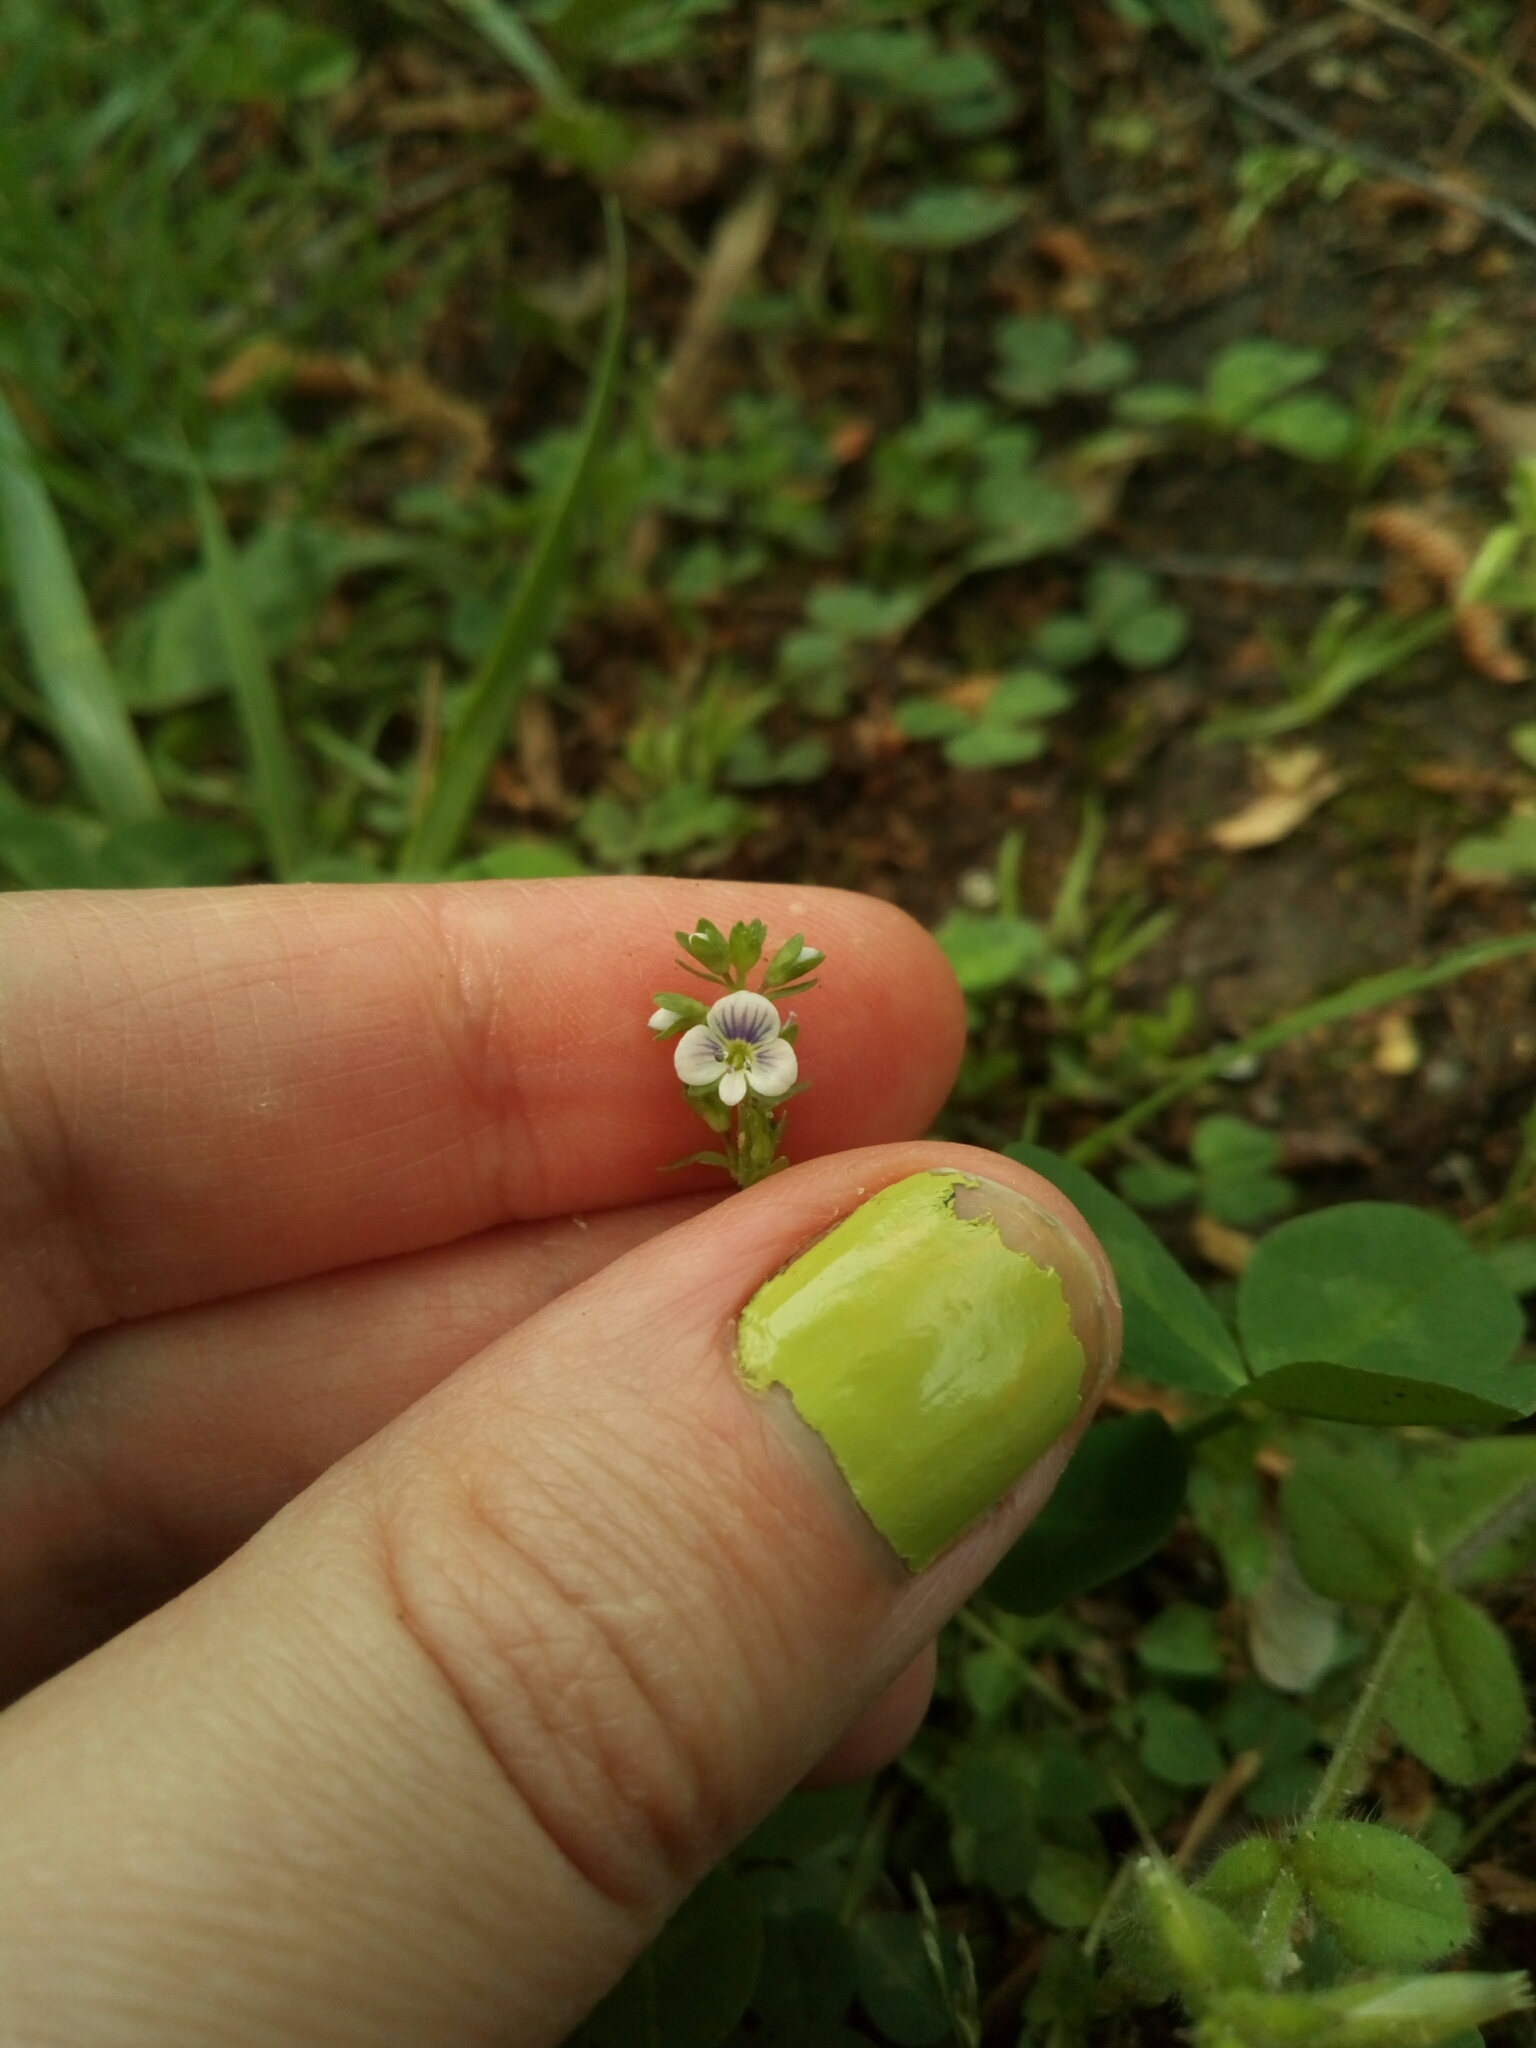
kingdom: Plantae
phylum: Tracheophyta
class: Magnoliopsida
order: Lamiales
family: Plantaginaceae
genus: Veronica
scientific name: Veronica serpyllifolia
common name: Thyme-leaved speedwell
